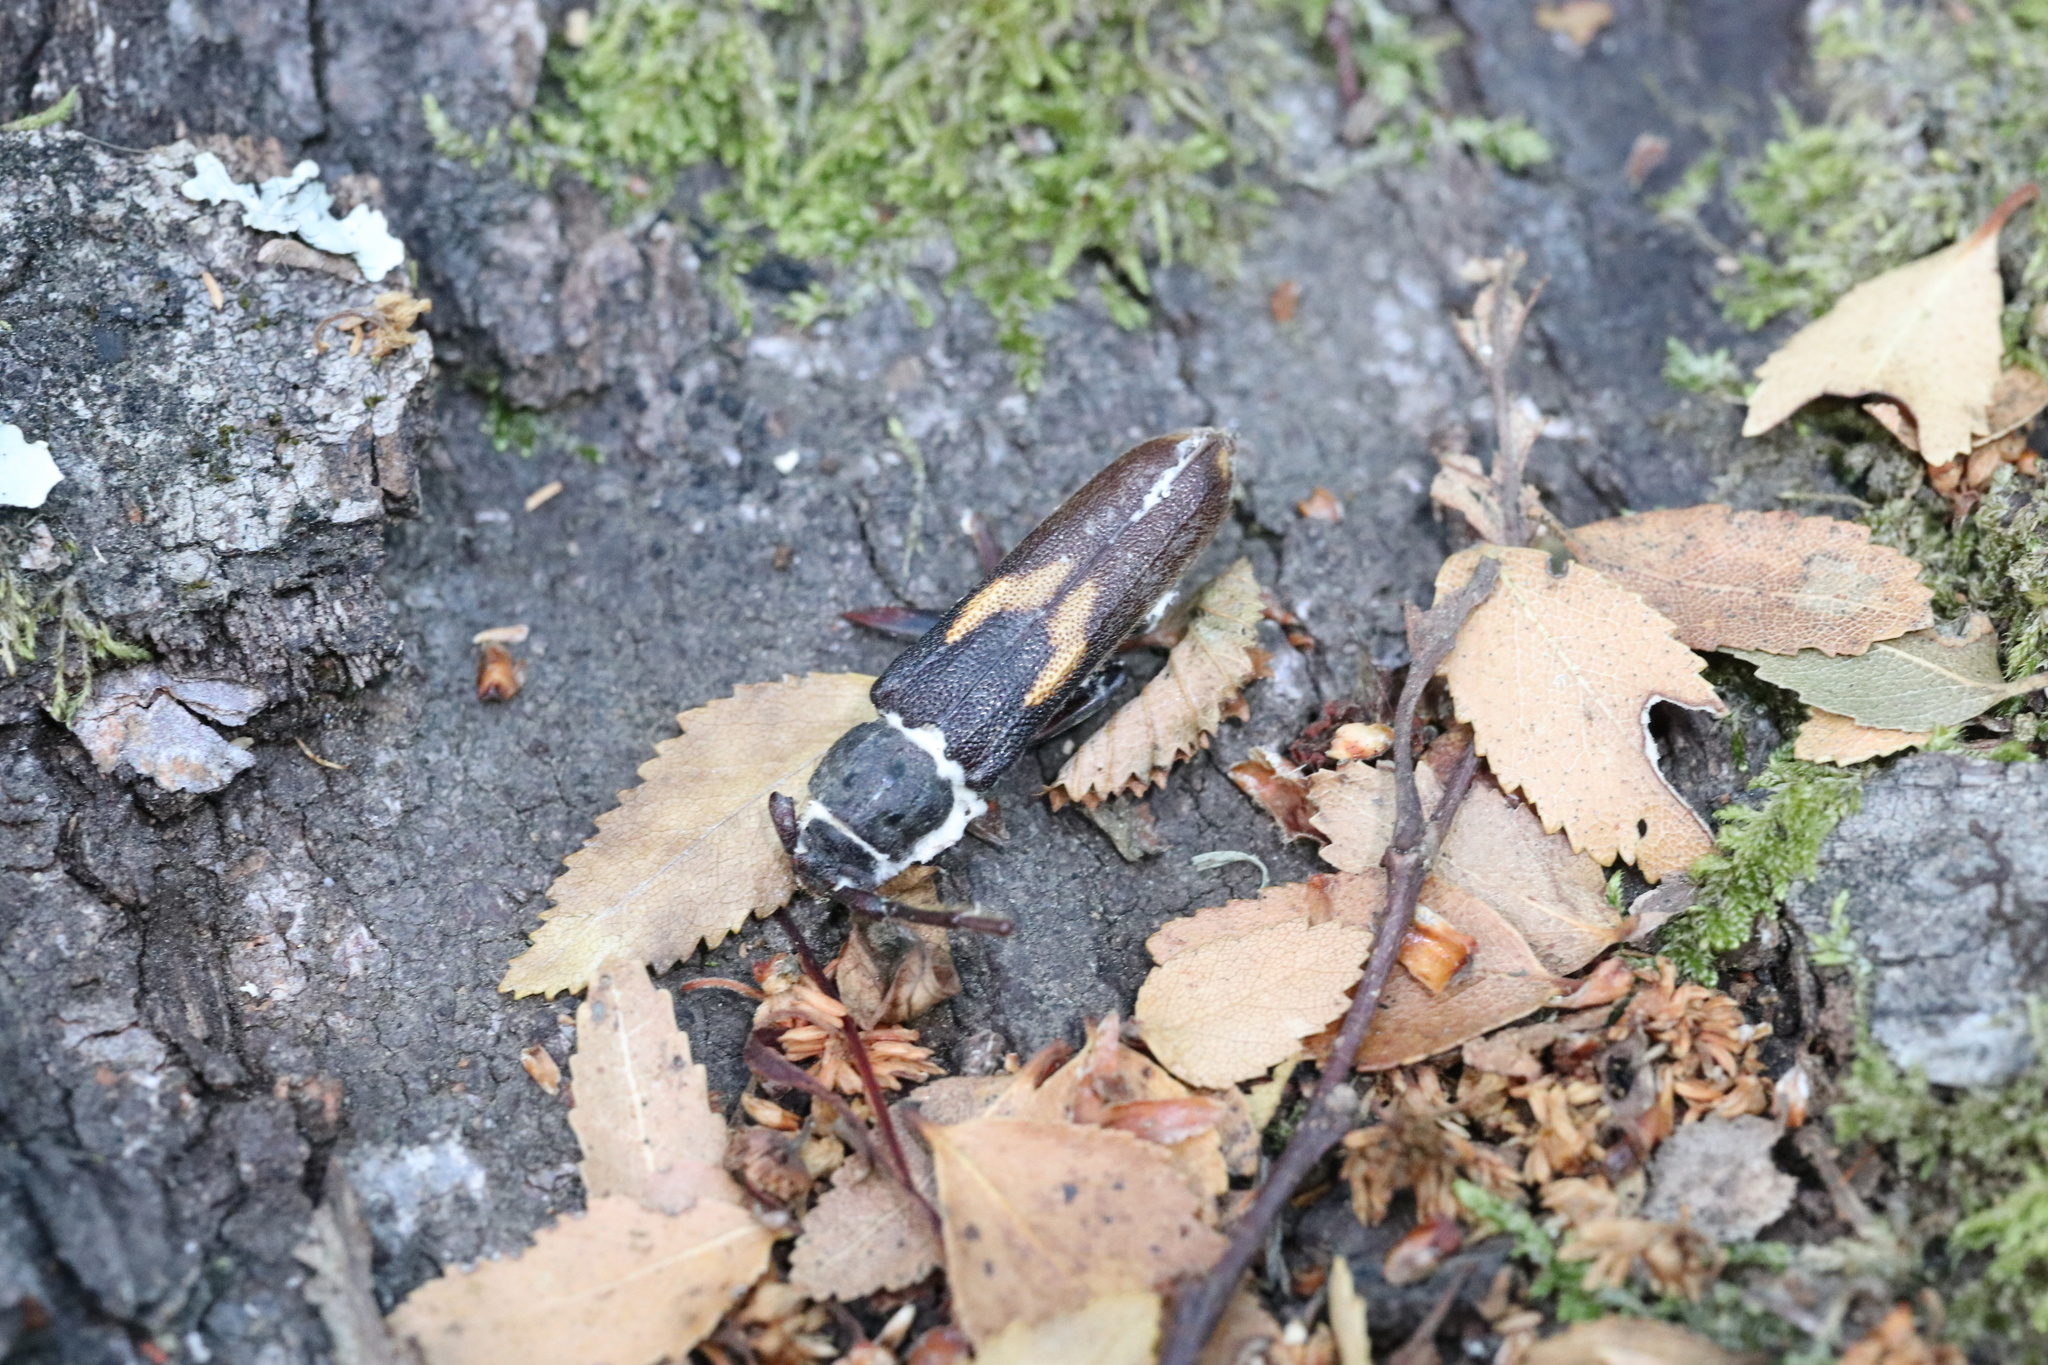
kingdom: Animalia
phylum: Arthropoda
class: Insecta
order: Coleoptera
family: Cerambycidae
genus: Grammicosum
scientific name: Grammicosum flavofasciatum
